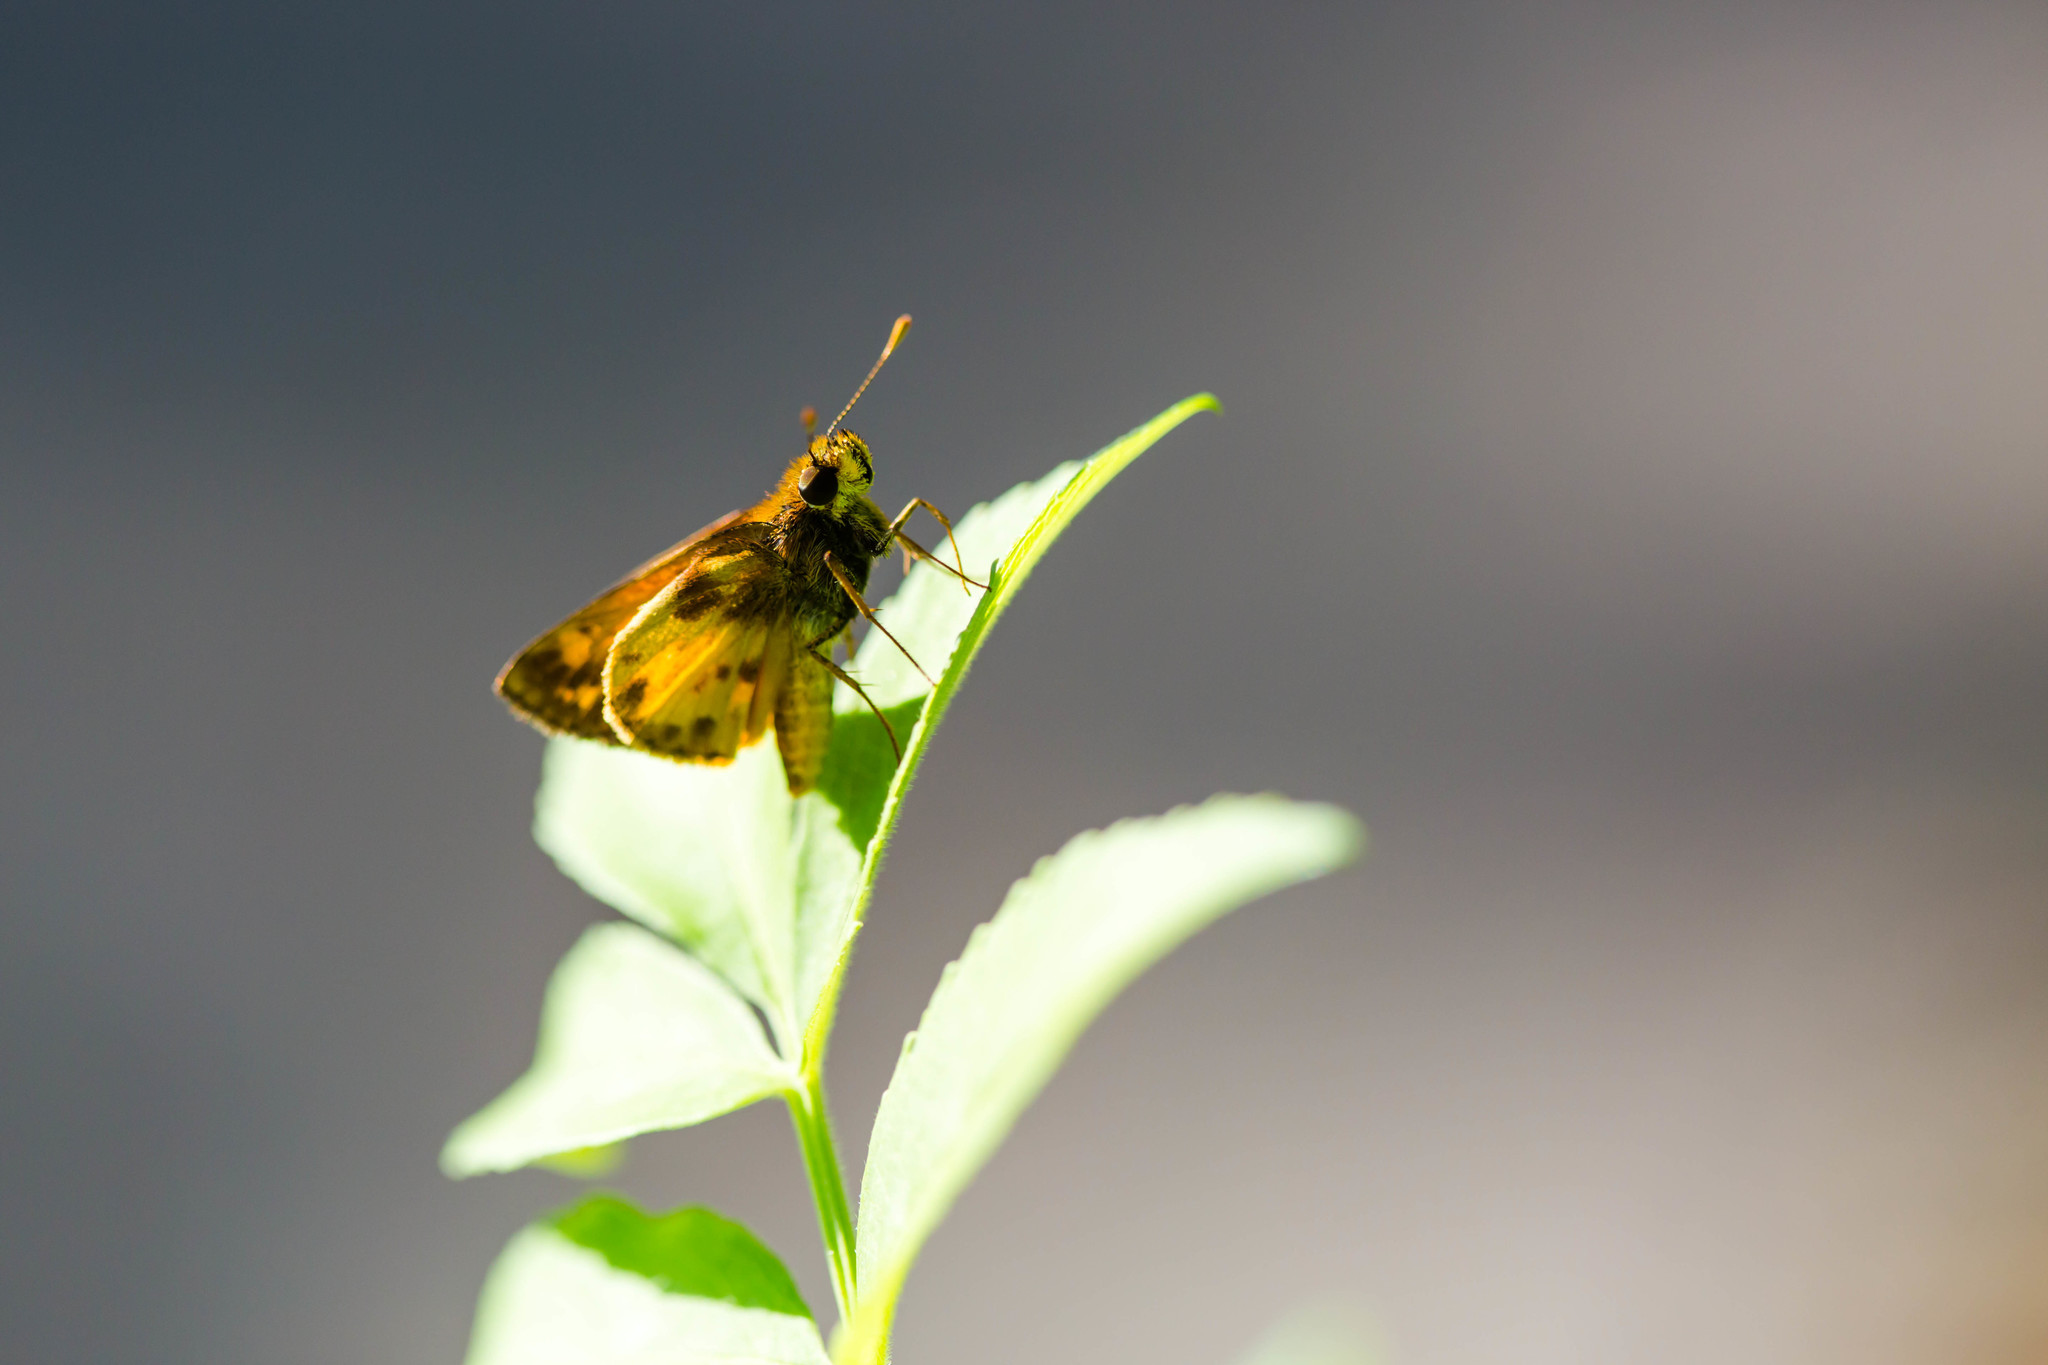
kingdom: Animalia
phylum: Arthropoda
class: Insecta
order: Lepidoptera
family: Hesperiidae
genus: Lon
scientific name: Lon zabulon
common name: Zabulon skipper
